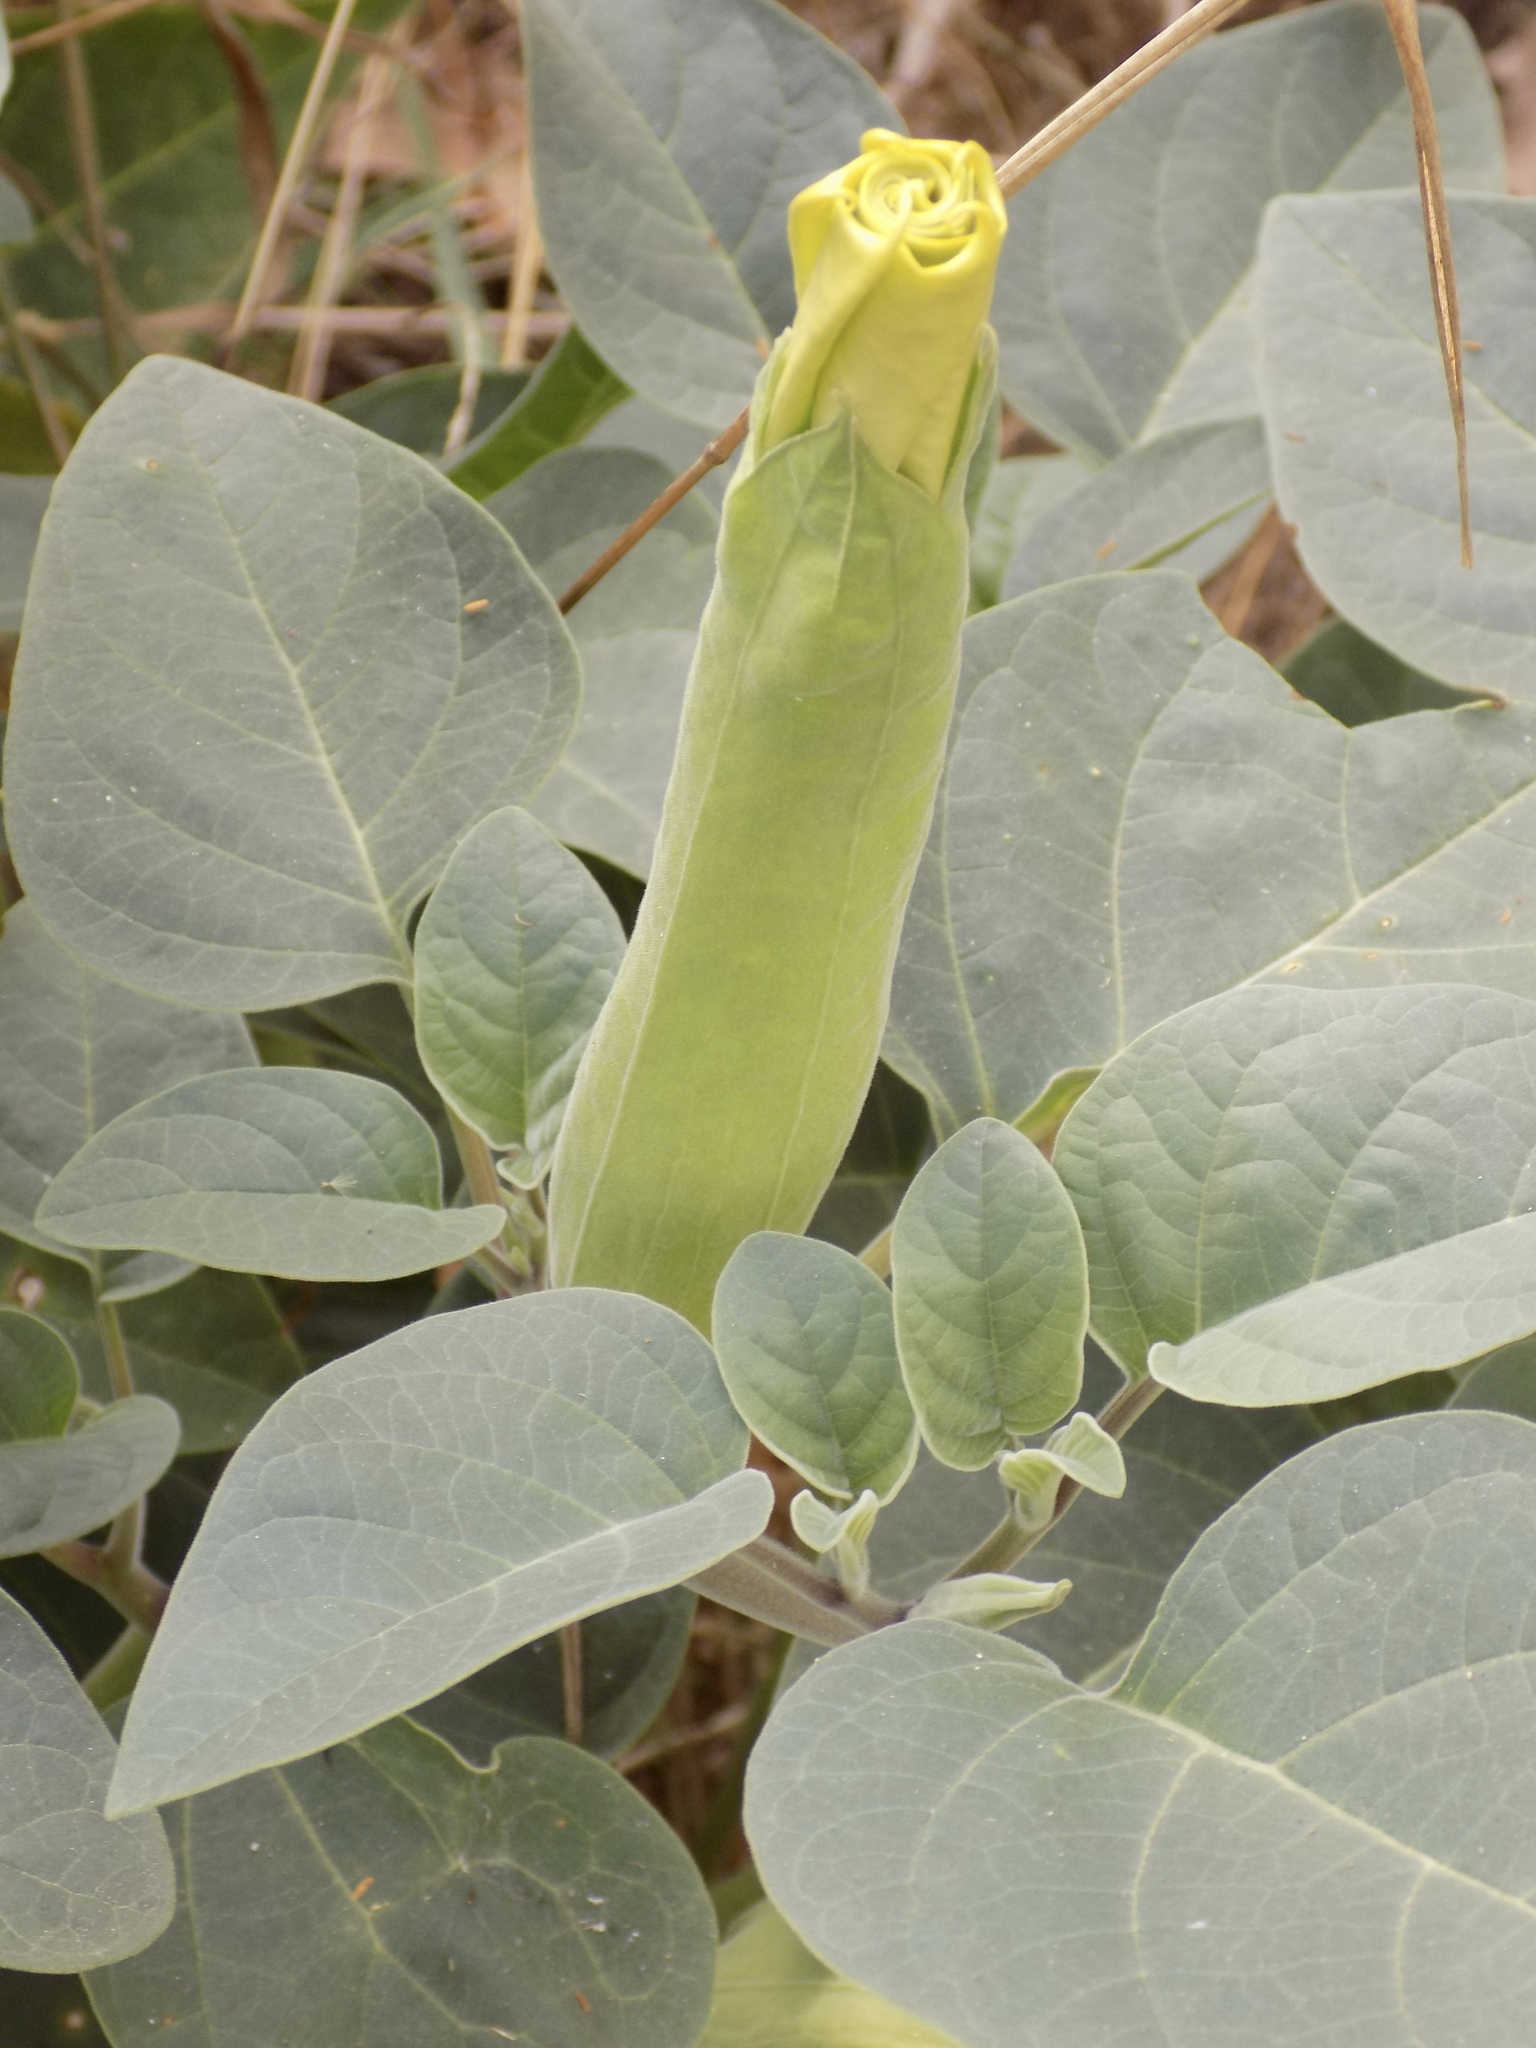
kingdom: Plantae
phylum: Tracheophyta
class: Magnoliopsida
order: Solanales
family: Solanaceae
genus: Datura
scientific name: Datura wrightii
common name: Sacred thorn-apple
